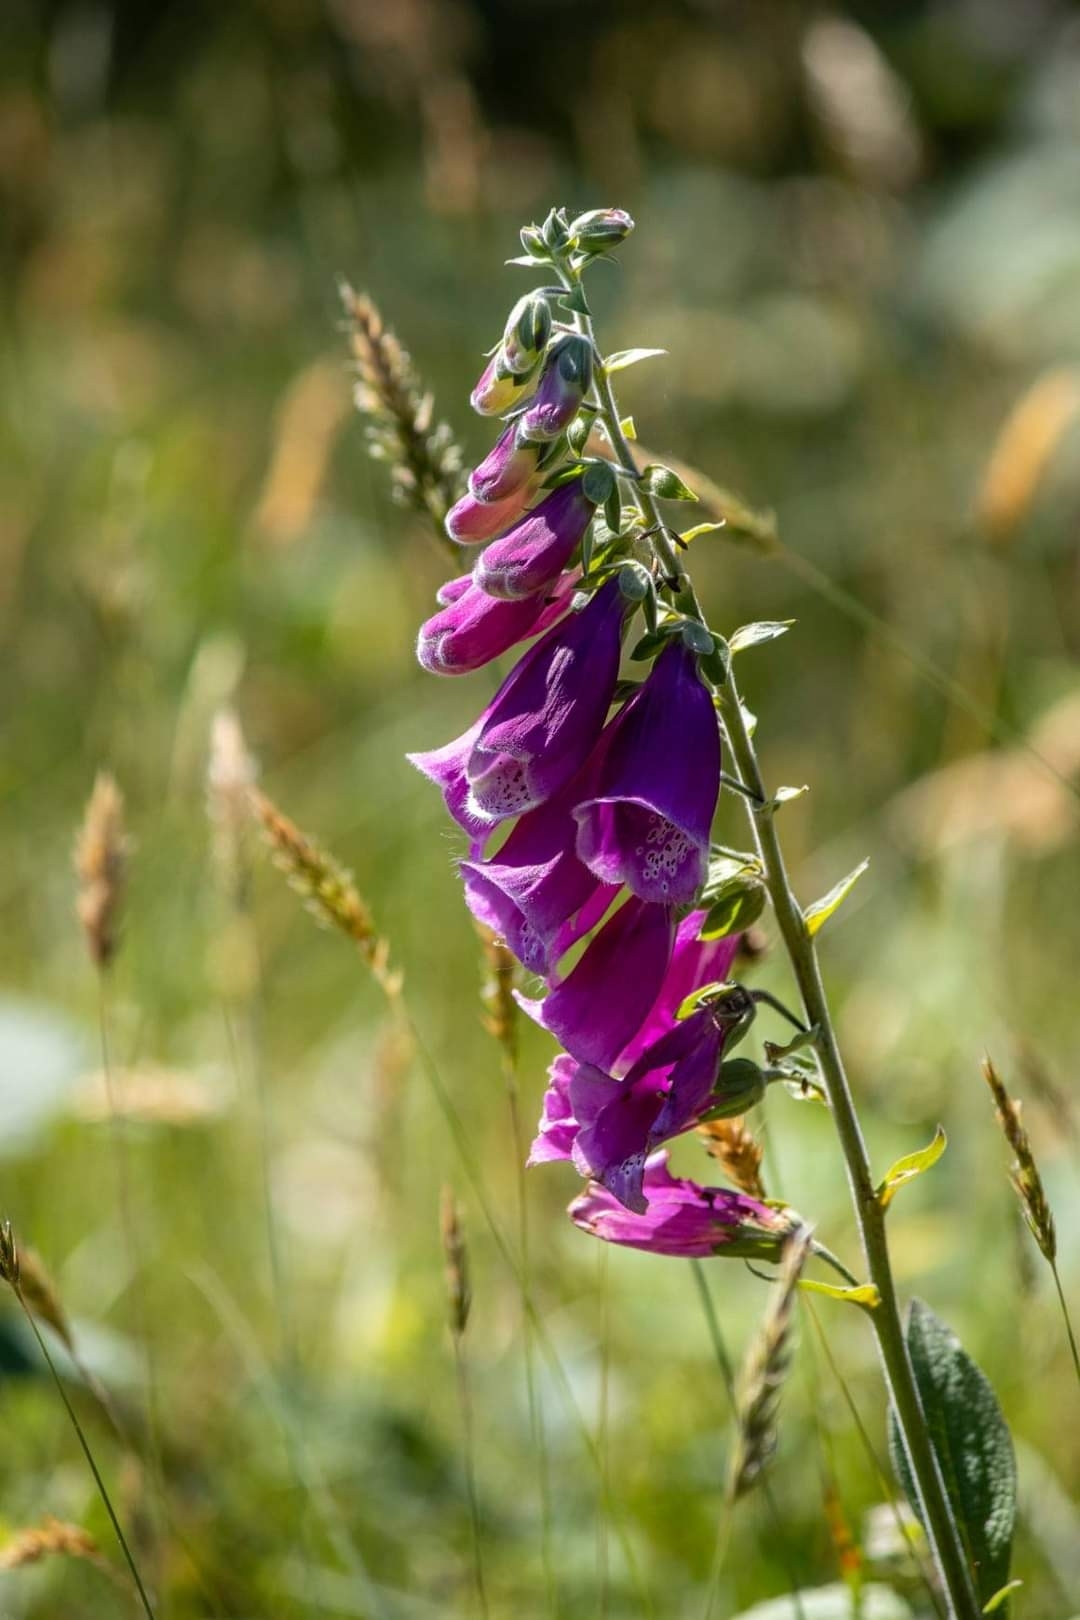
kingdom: Plantae
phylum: Tracheophyta
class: Magnoliopsida
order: Lamiales
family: Plantaginaceae
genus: Digitalis
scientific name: Digitalis purpurea
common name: Foxglove
